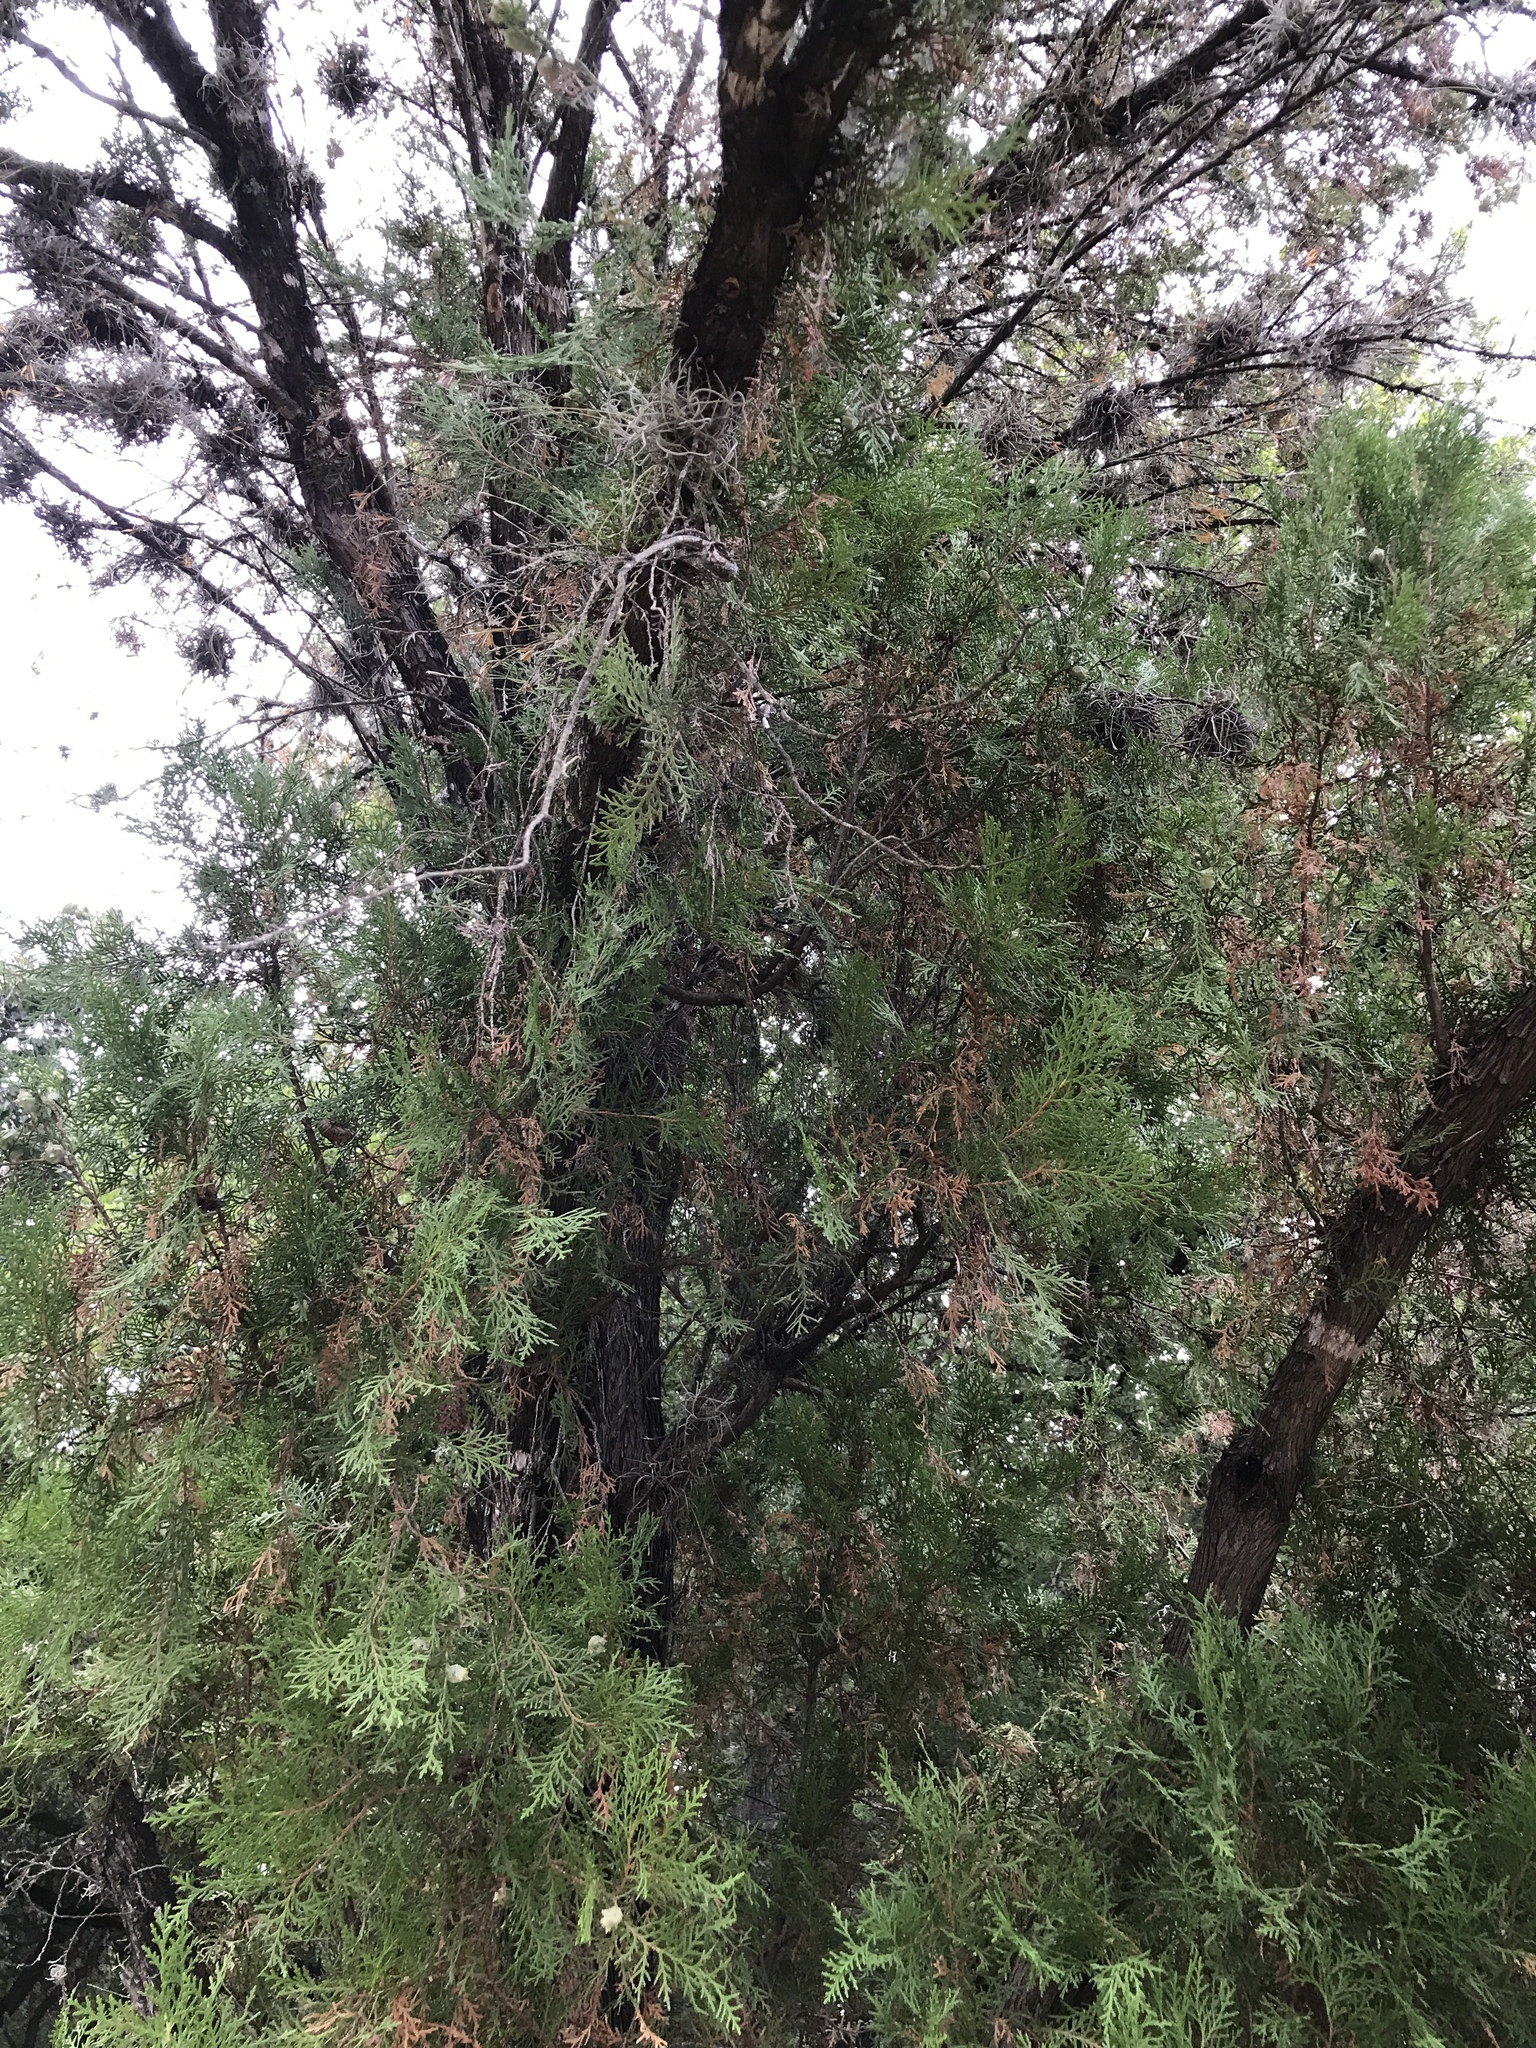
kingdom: Plantae
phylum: Tracheophyta
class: Pinopsida
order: Pinales
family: Cupressaceae
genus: Platycladus
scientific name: Platycladus orientalis
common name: Chinese thuja
